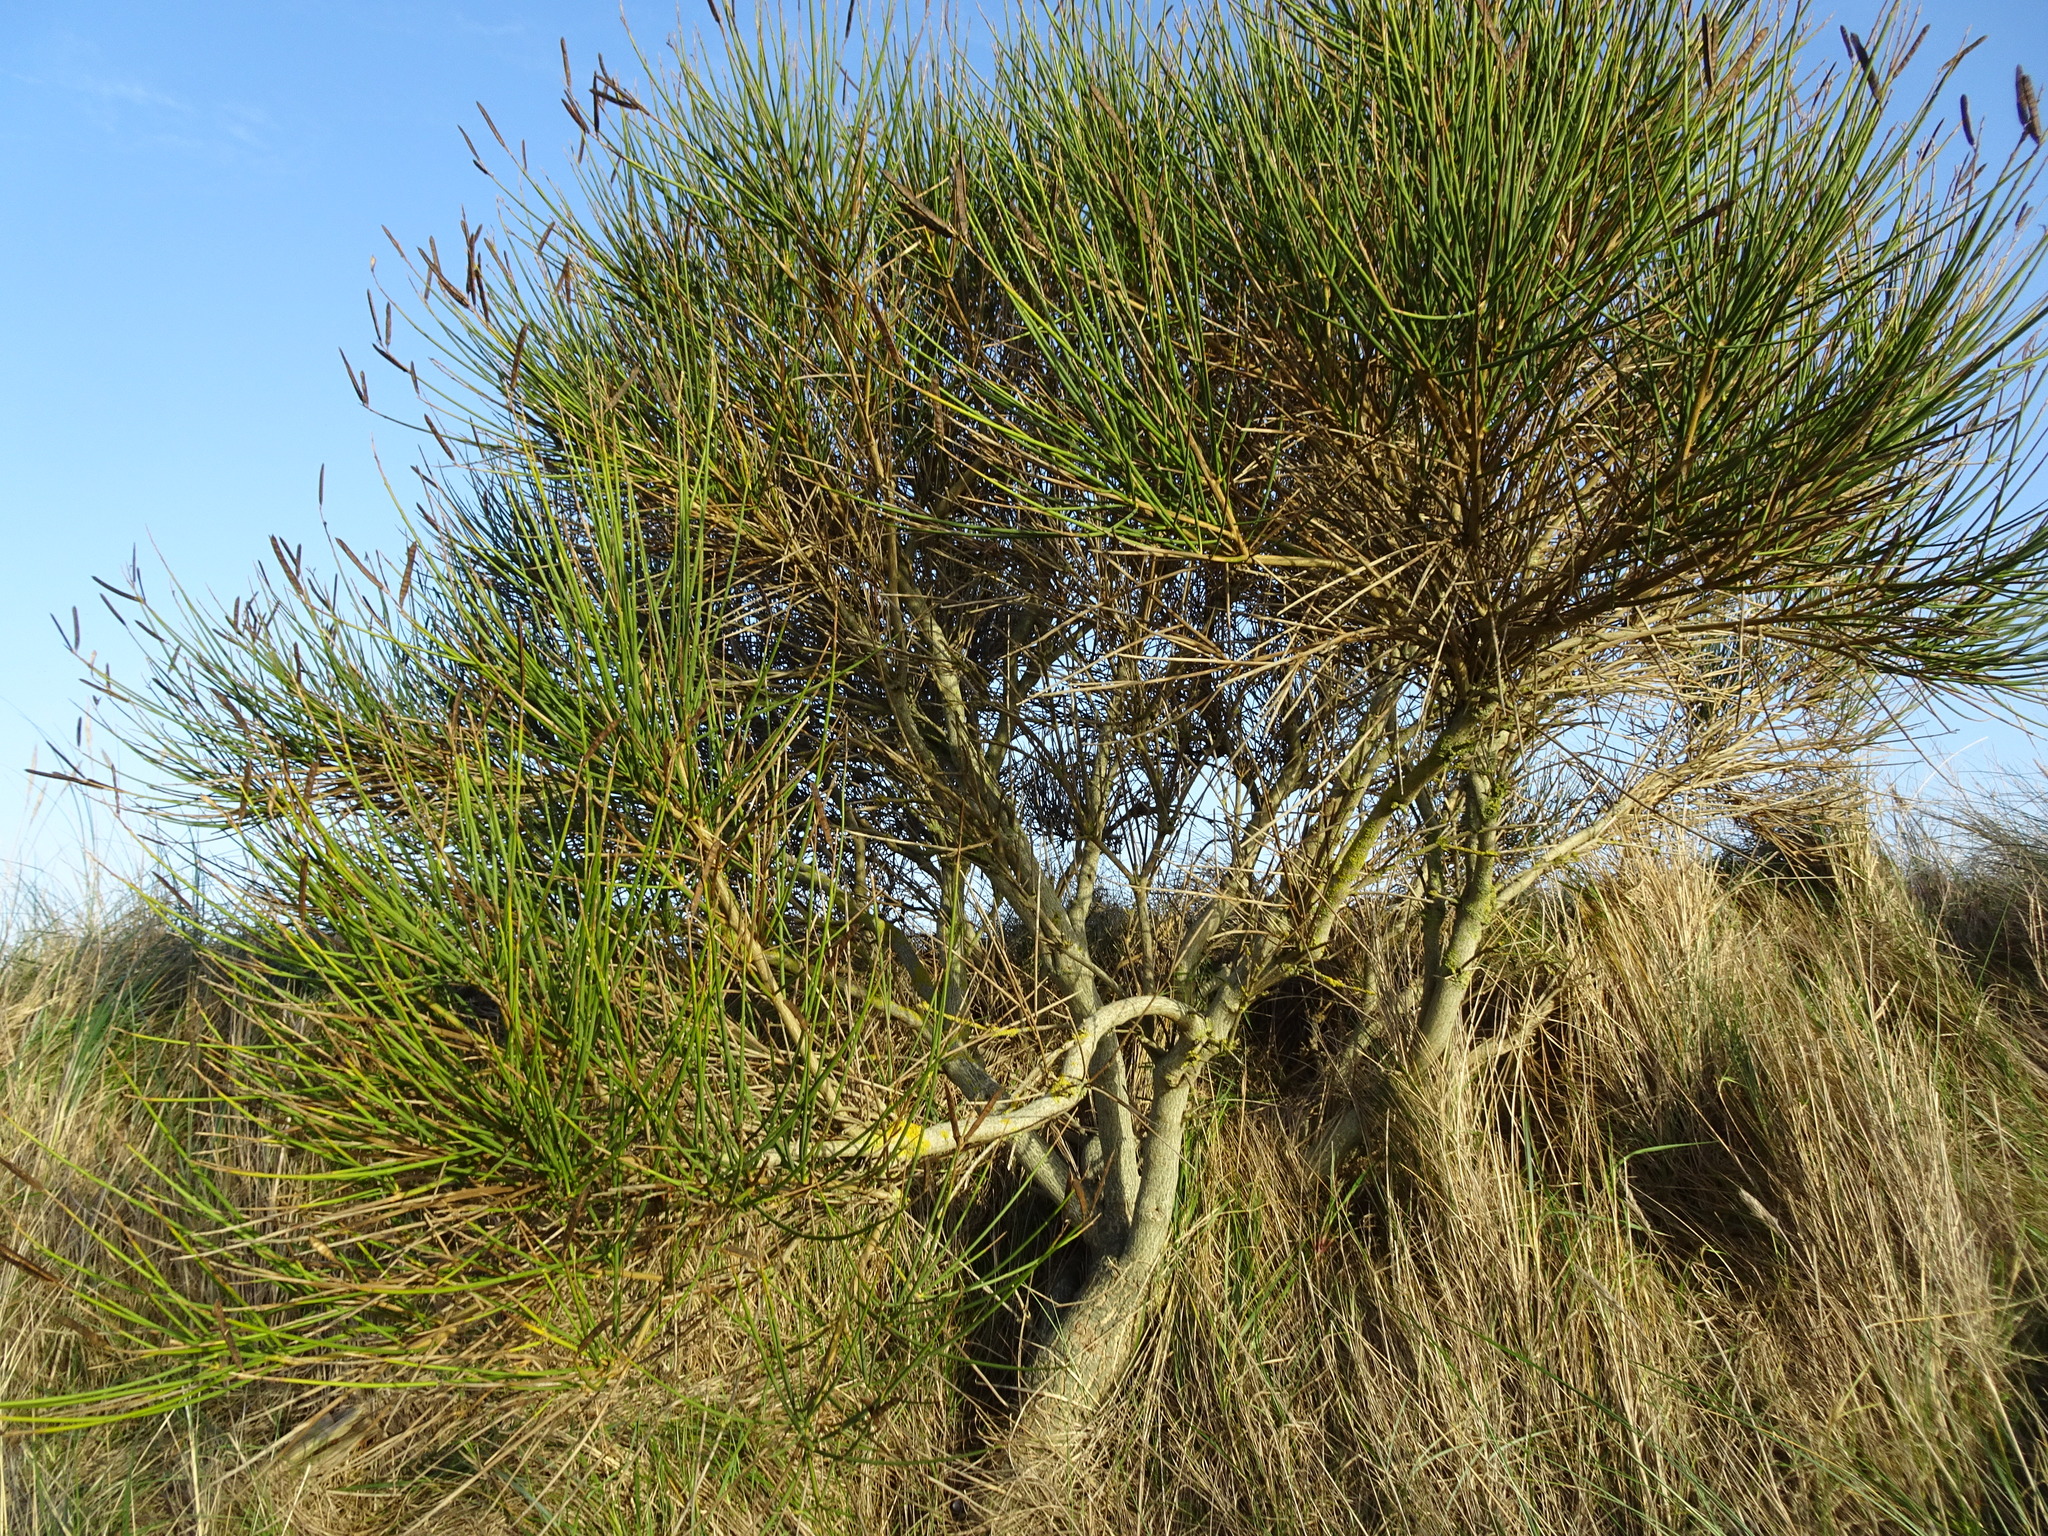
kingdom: Plantae
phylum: Tracheophyta
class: Magnoliopsida
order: Fabales
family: Fabaceae
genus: Spartium
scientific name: Spartium junceum
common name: Spanish broom
